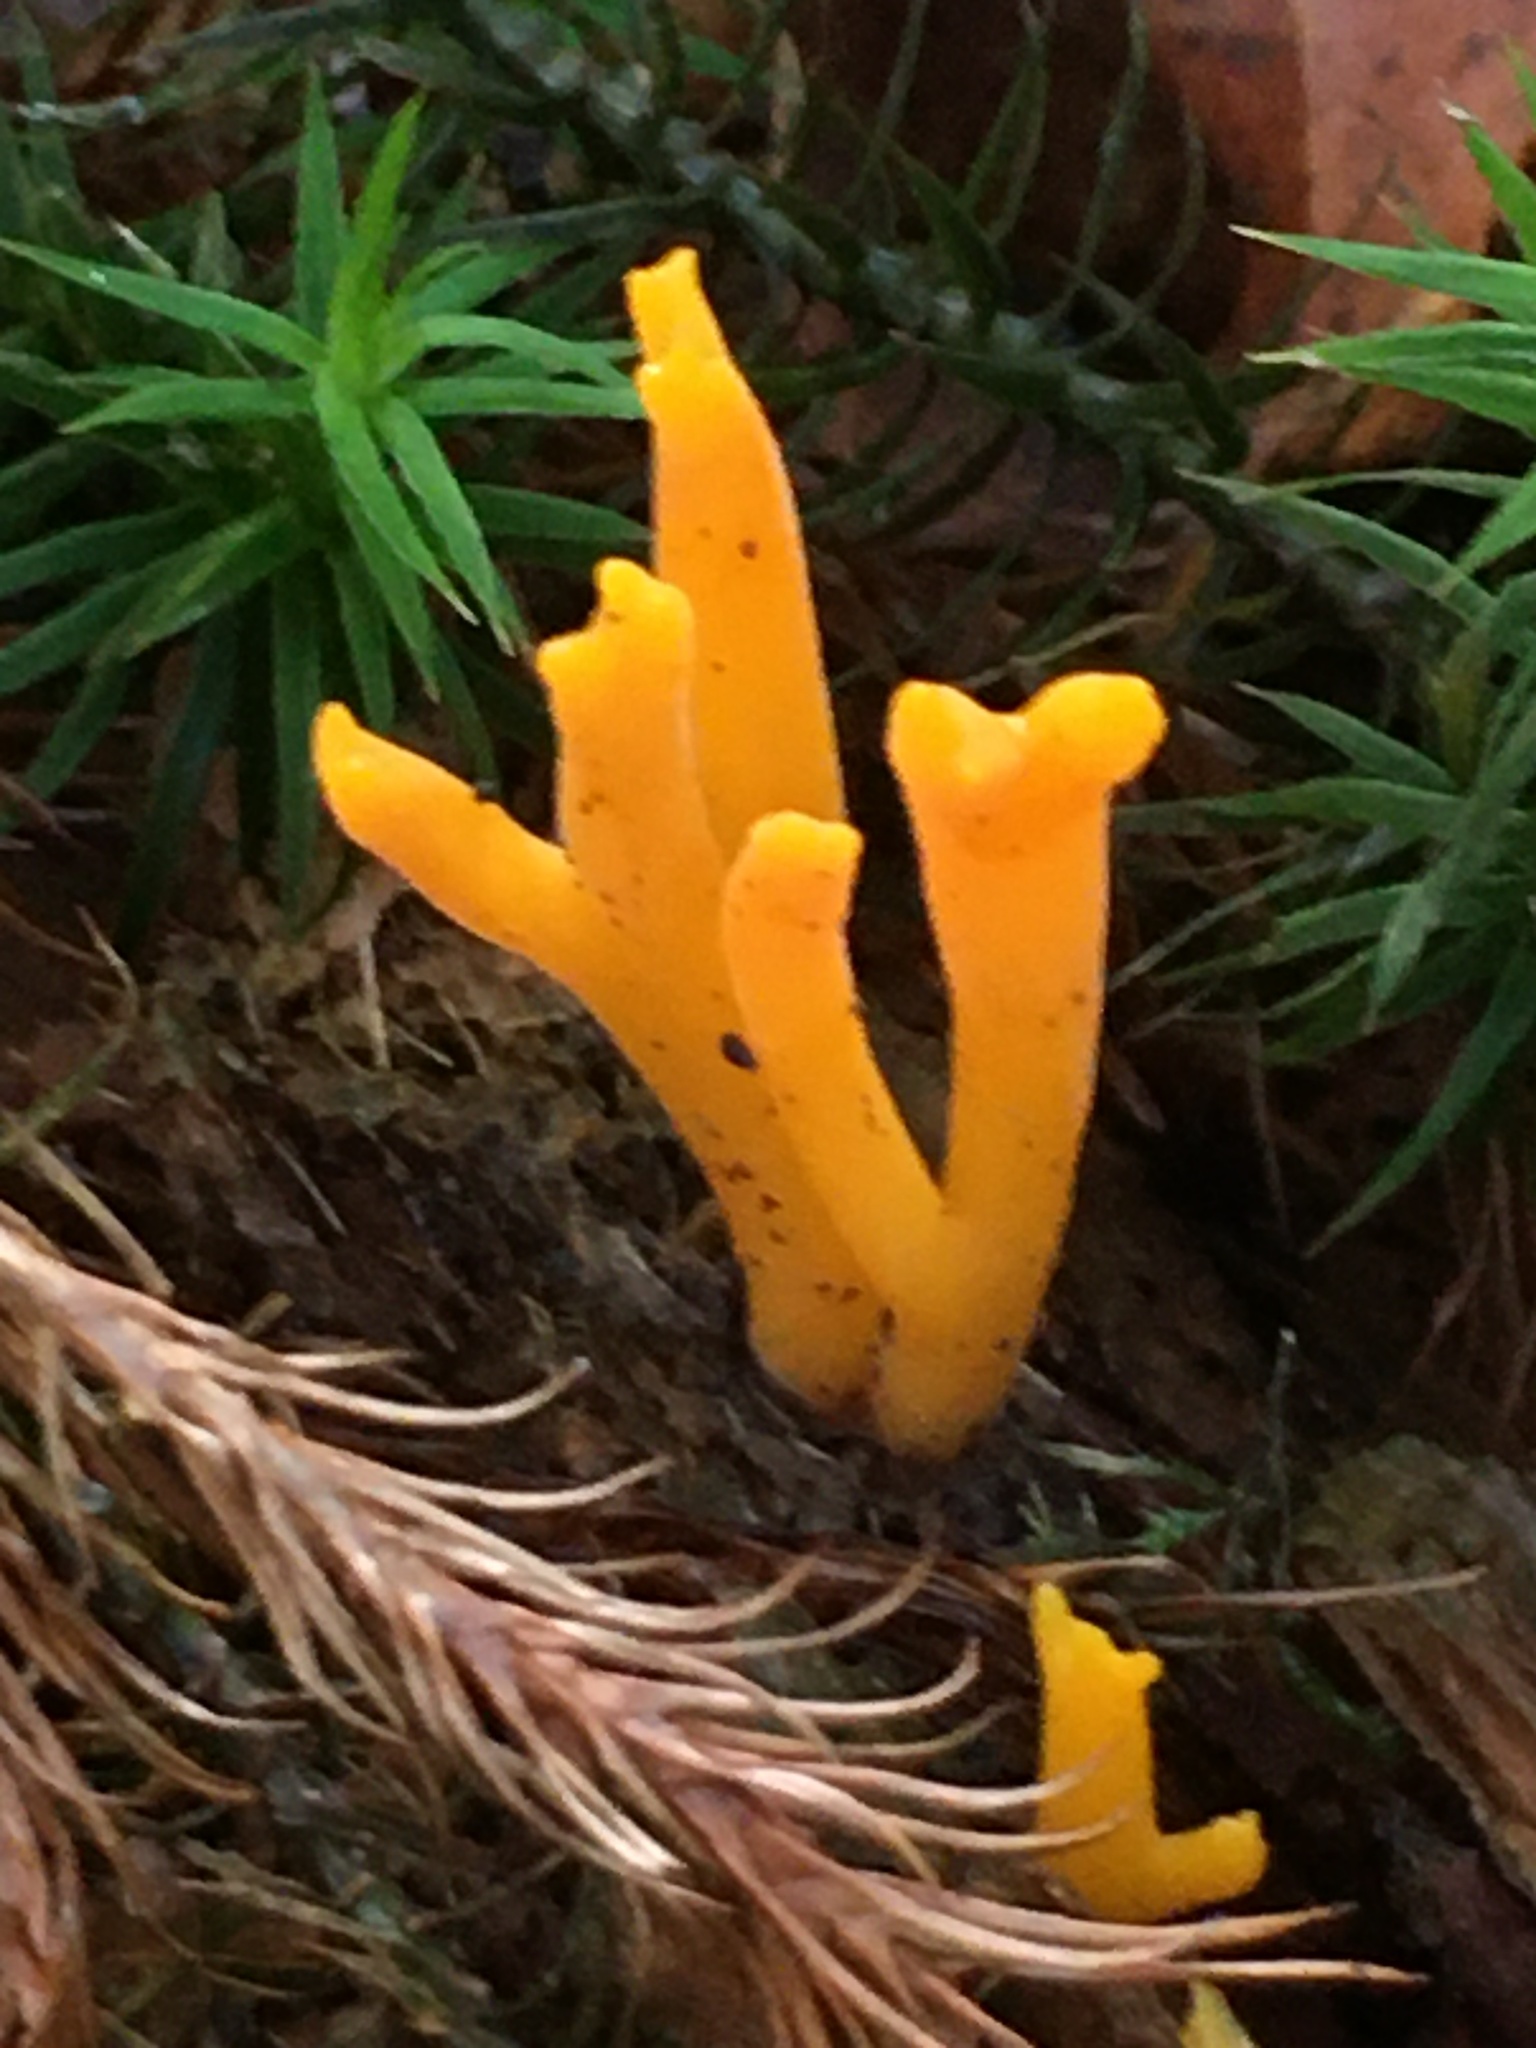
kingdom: Fungi
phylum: Basidiomycota
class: Dacrymycetes
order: Dacrymycetales
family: Dacrymycetaceae
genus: Calocera
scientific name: Calocera viscosa
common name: Yellow stagshorn
